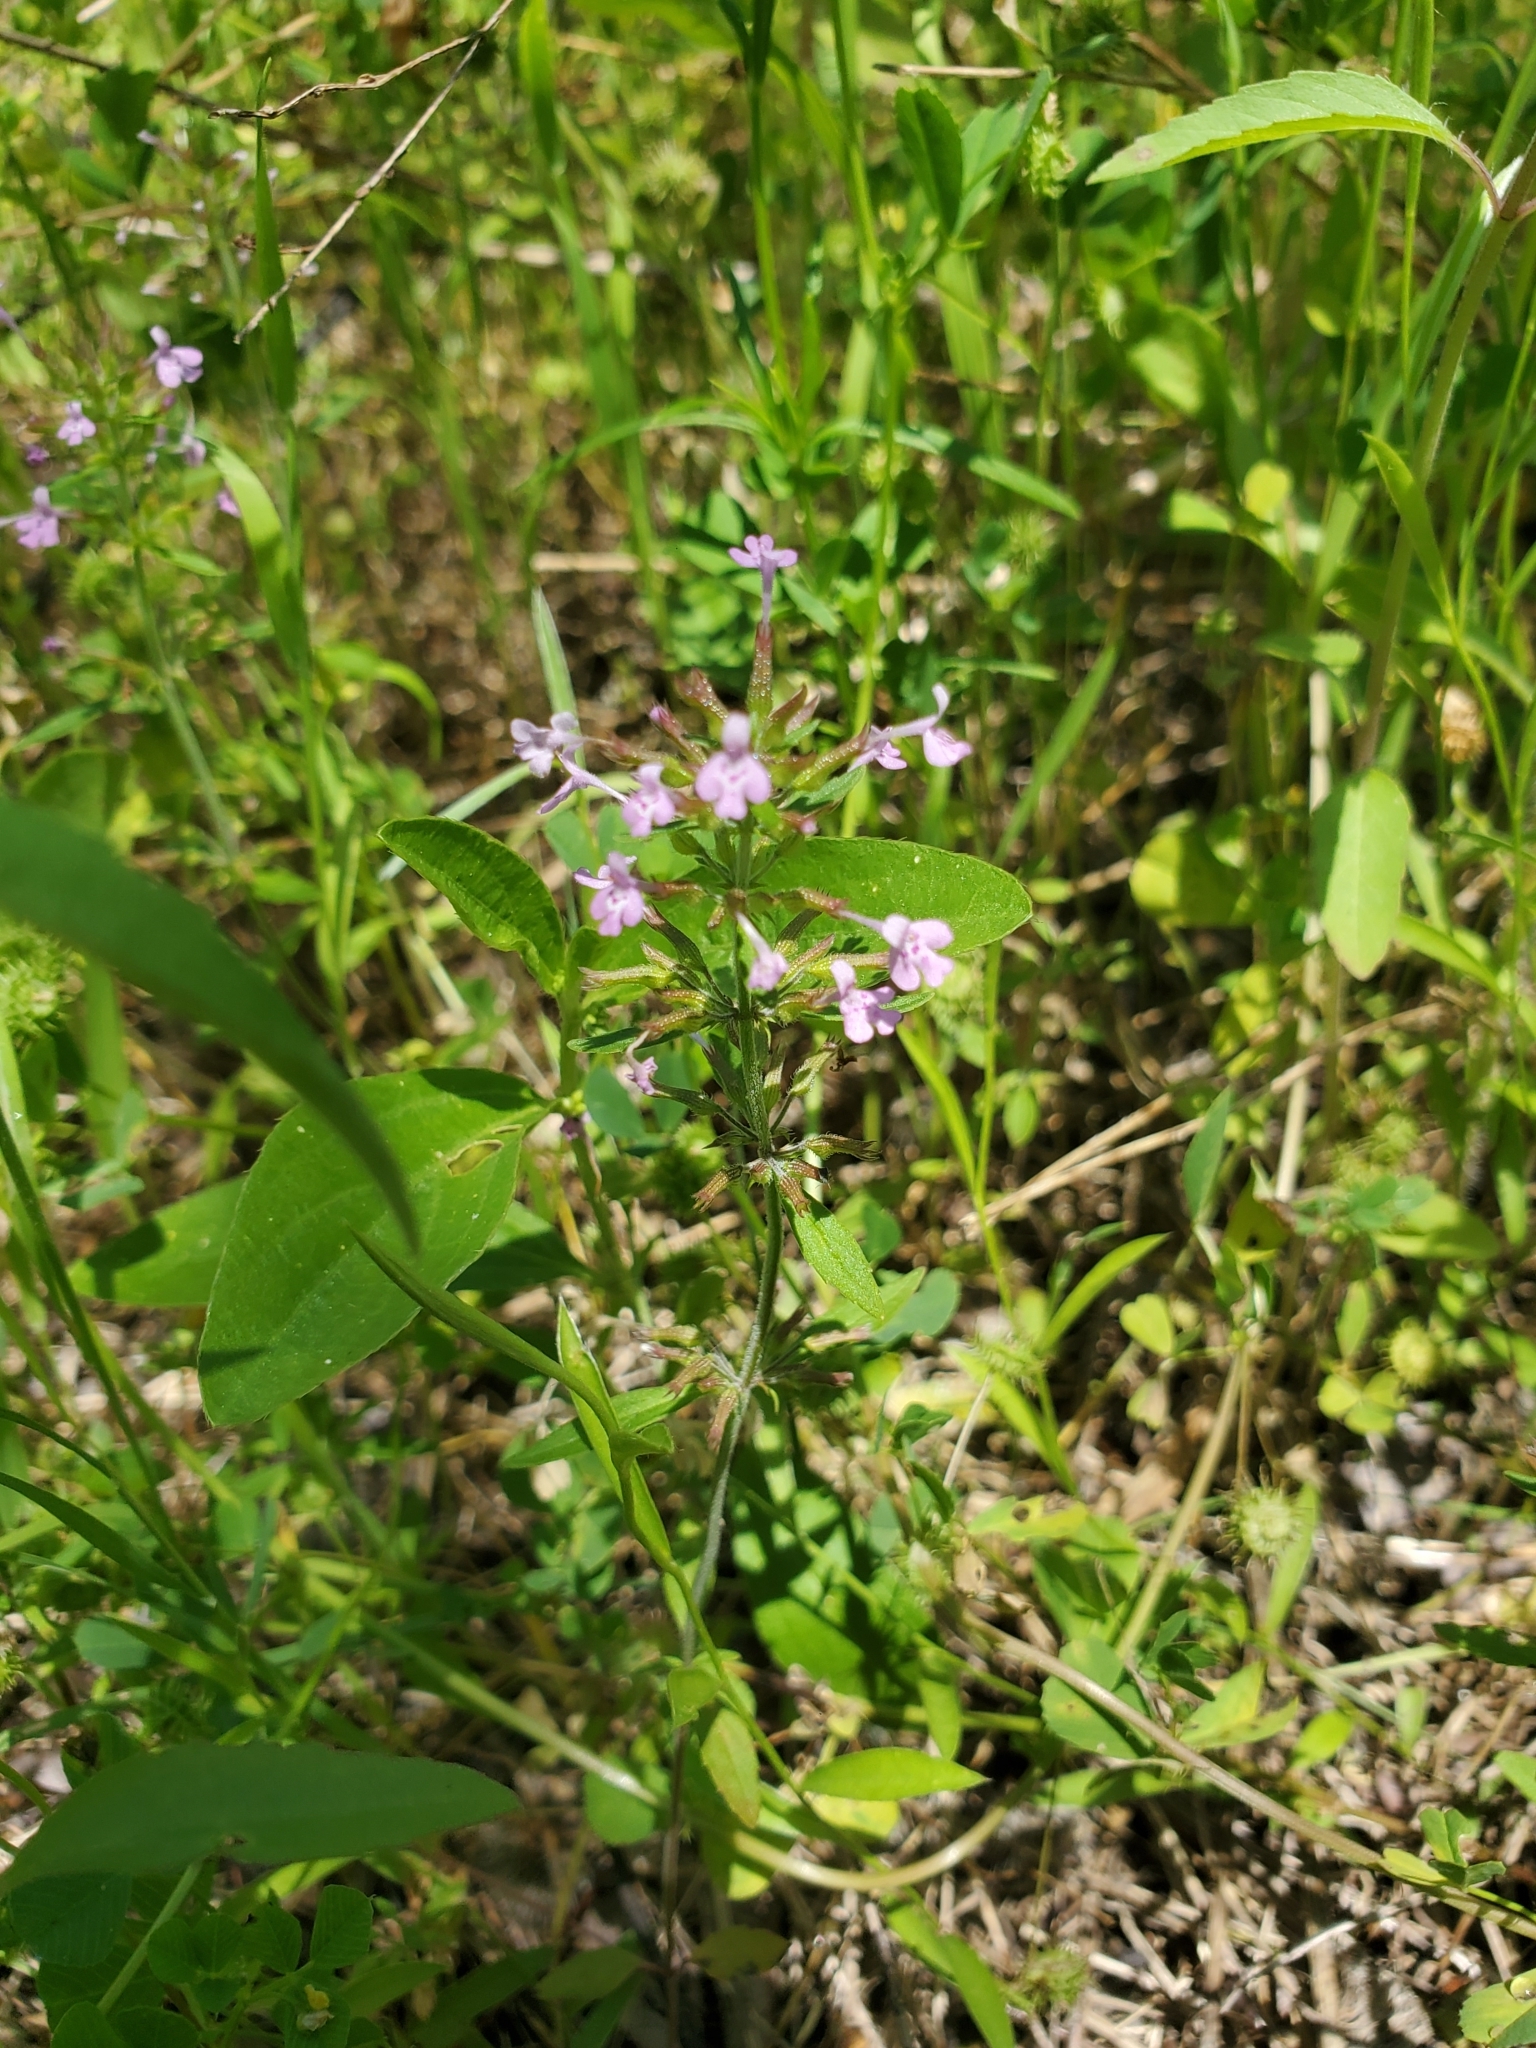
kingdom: Plantae
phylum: Tracheophyta
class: Magnoliopsida
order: Lamiales
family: Lamiaceae
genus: Hedeoma
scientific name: Hedeoma acinoides
